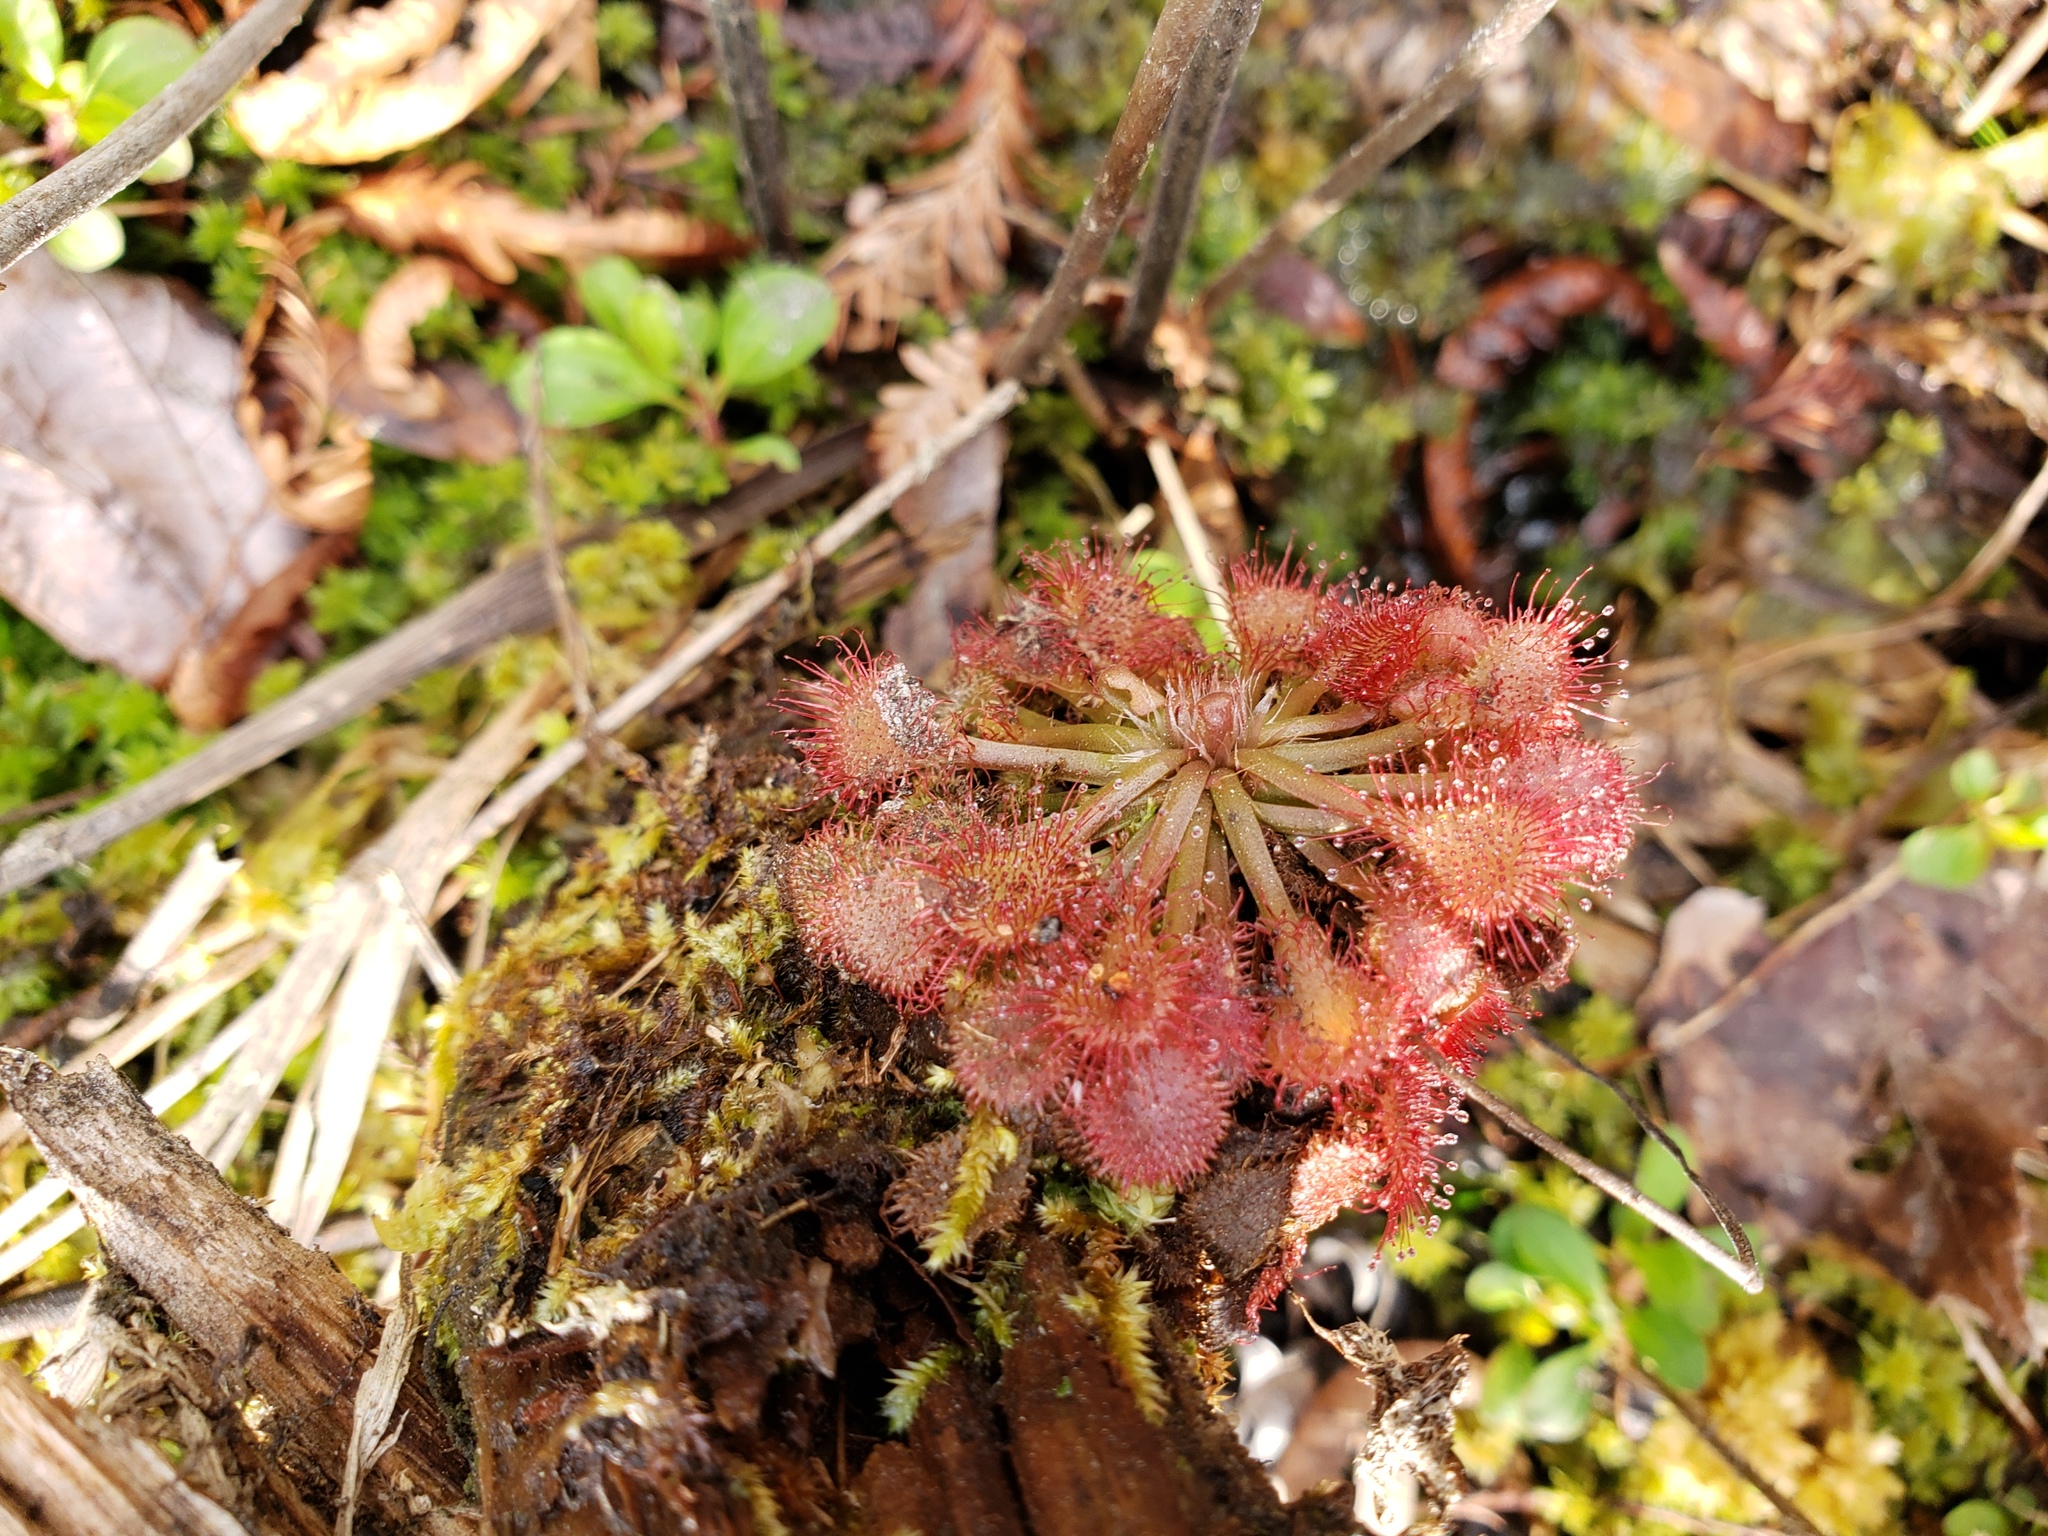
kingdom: Plantae
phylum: Tracheophyta
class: Magnoliopsida
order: Caryophyllales
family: Droseraceae
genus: Drosera
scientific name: Drosera capillaris
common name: Pink sundew
